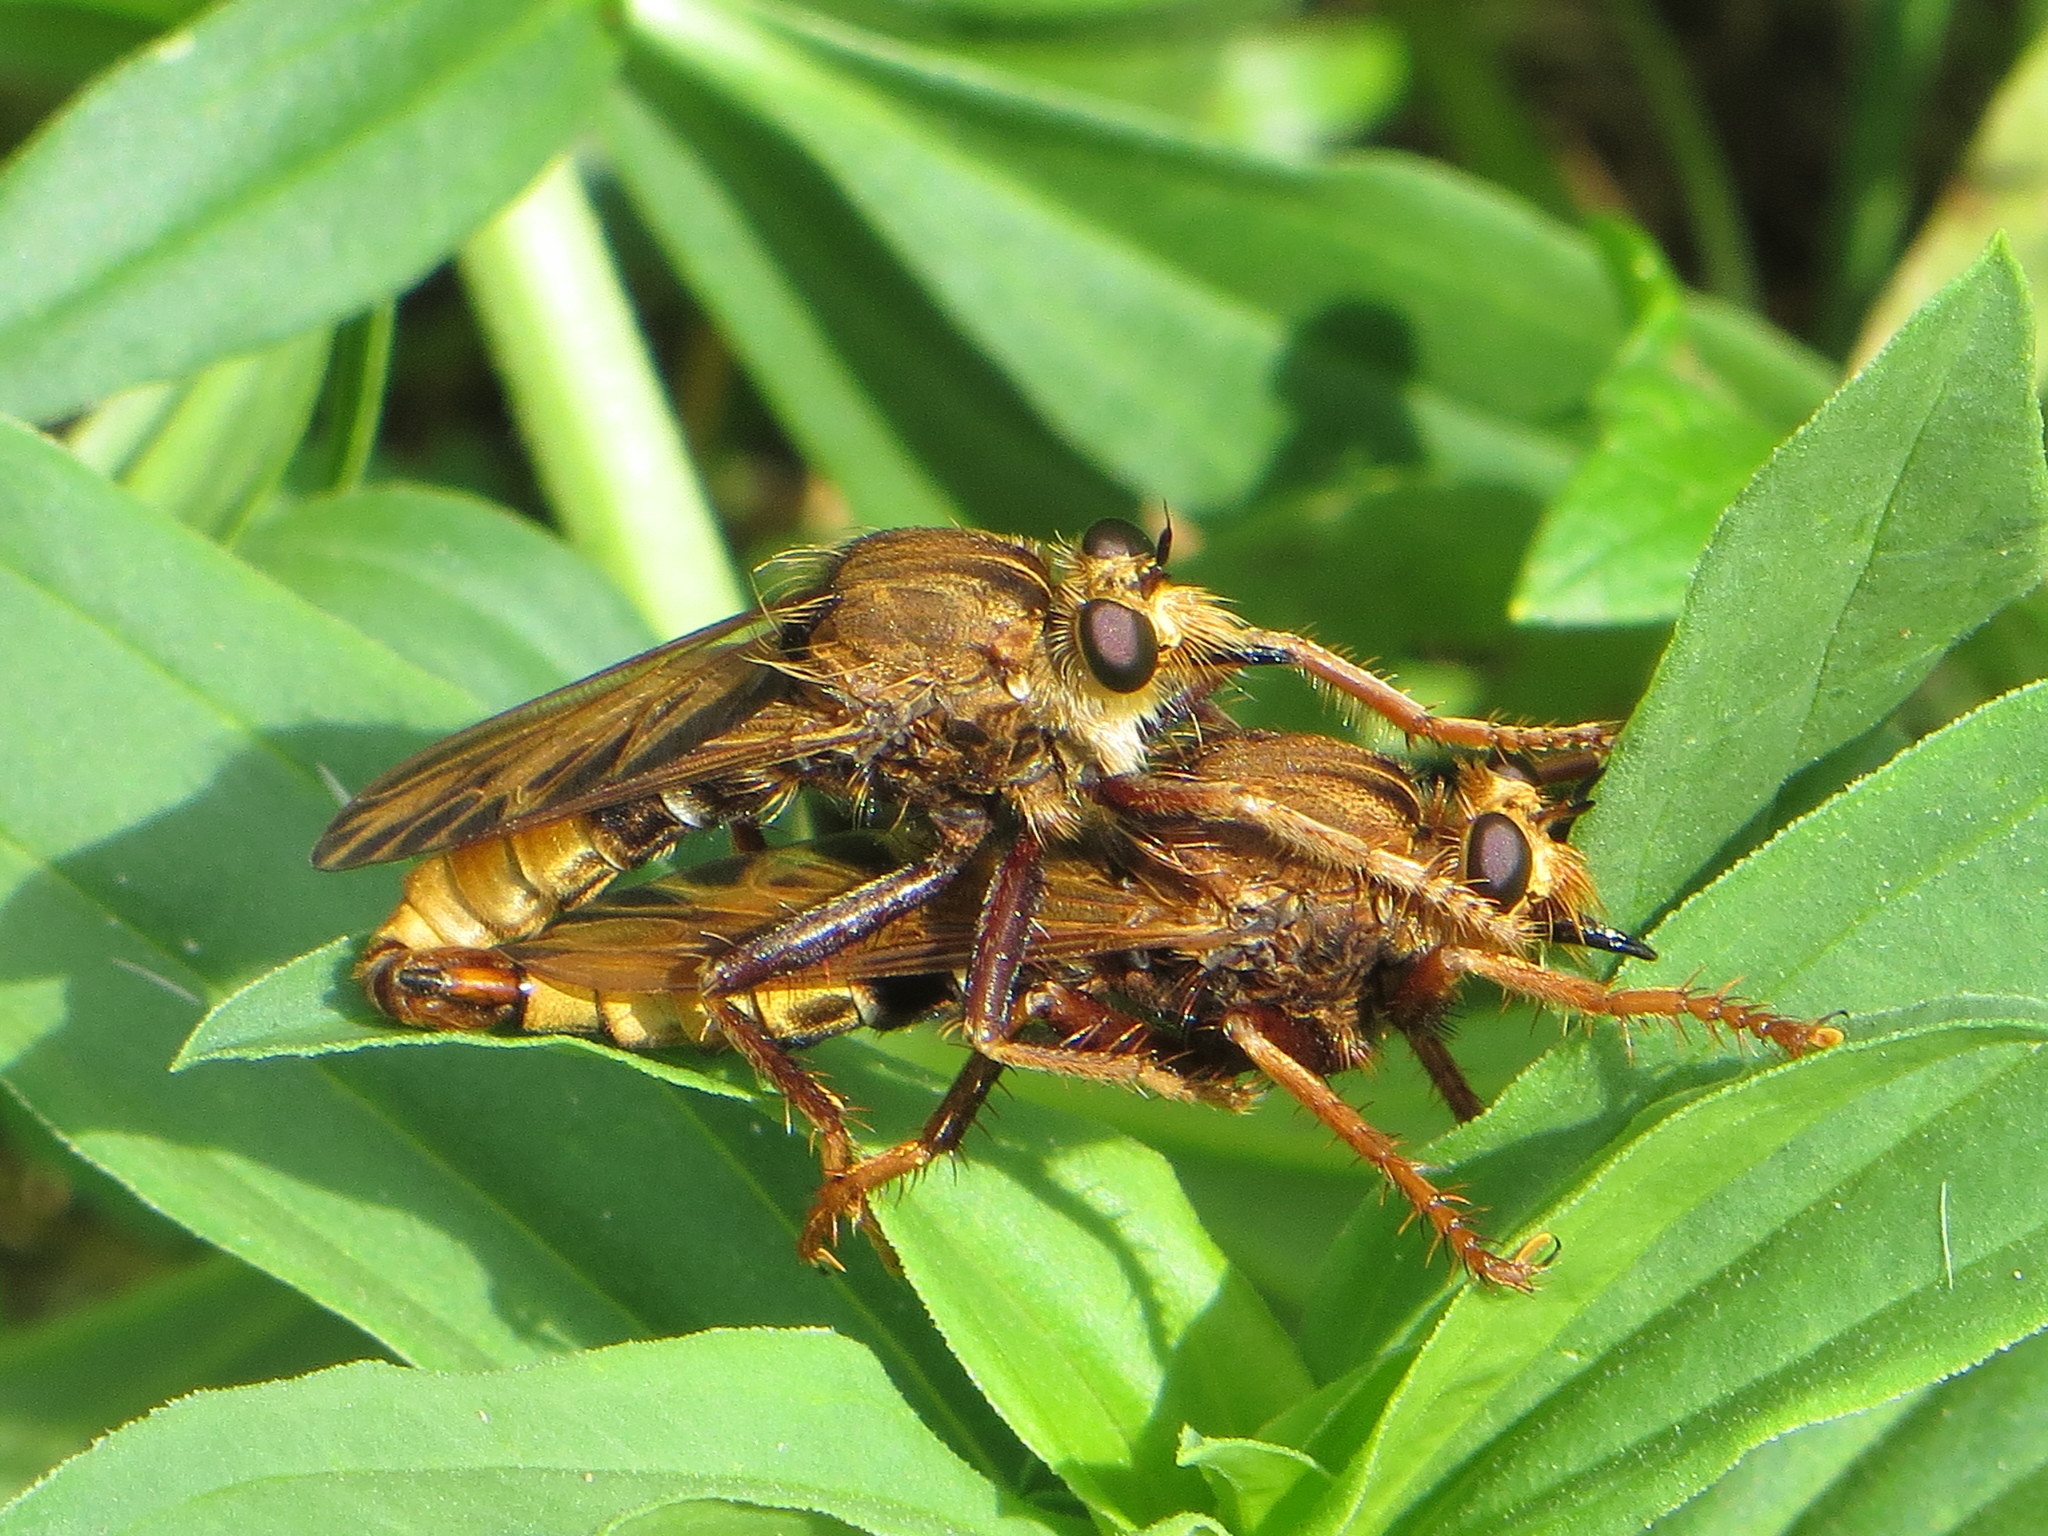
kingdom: Animalia
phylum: Arthropoda
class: Insecta
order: Diptera
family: Asilidae
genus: Asilus
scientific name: Asilus crabroniformis
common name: Hornet robberfly
